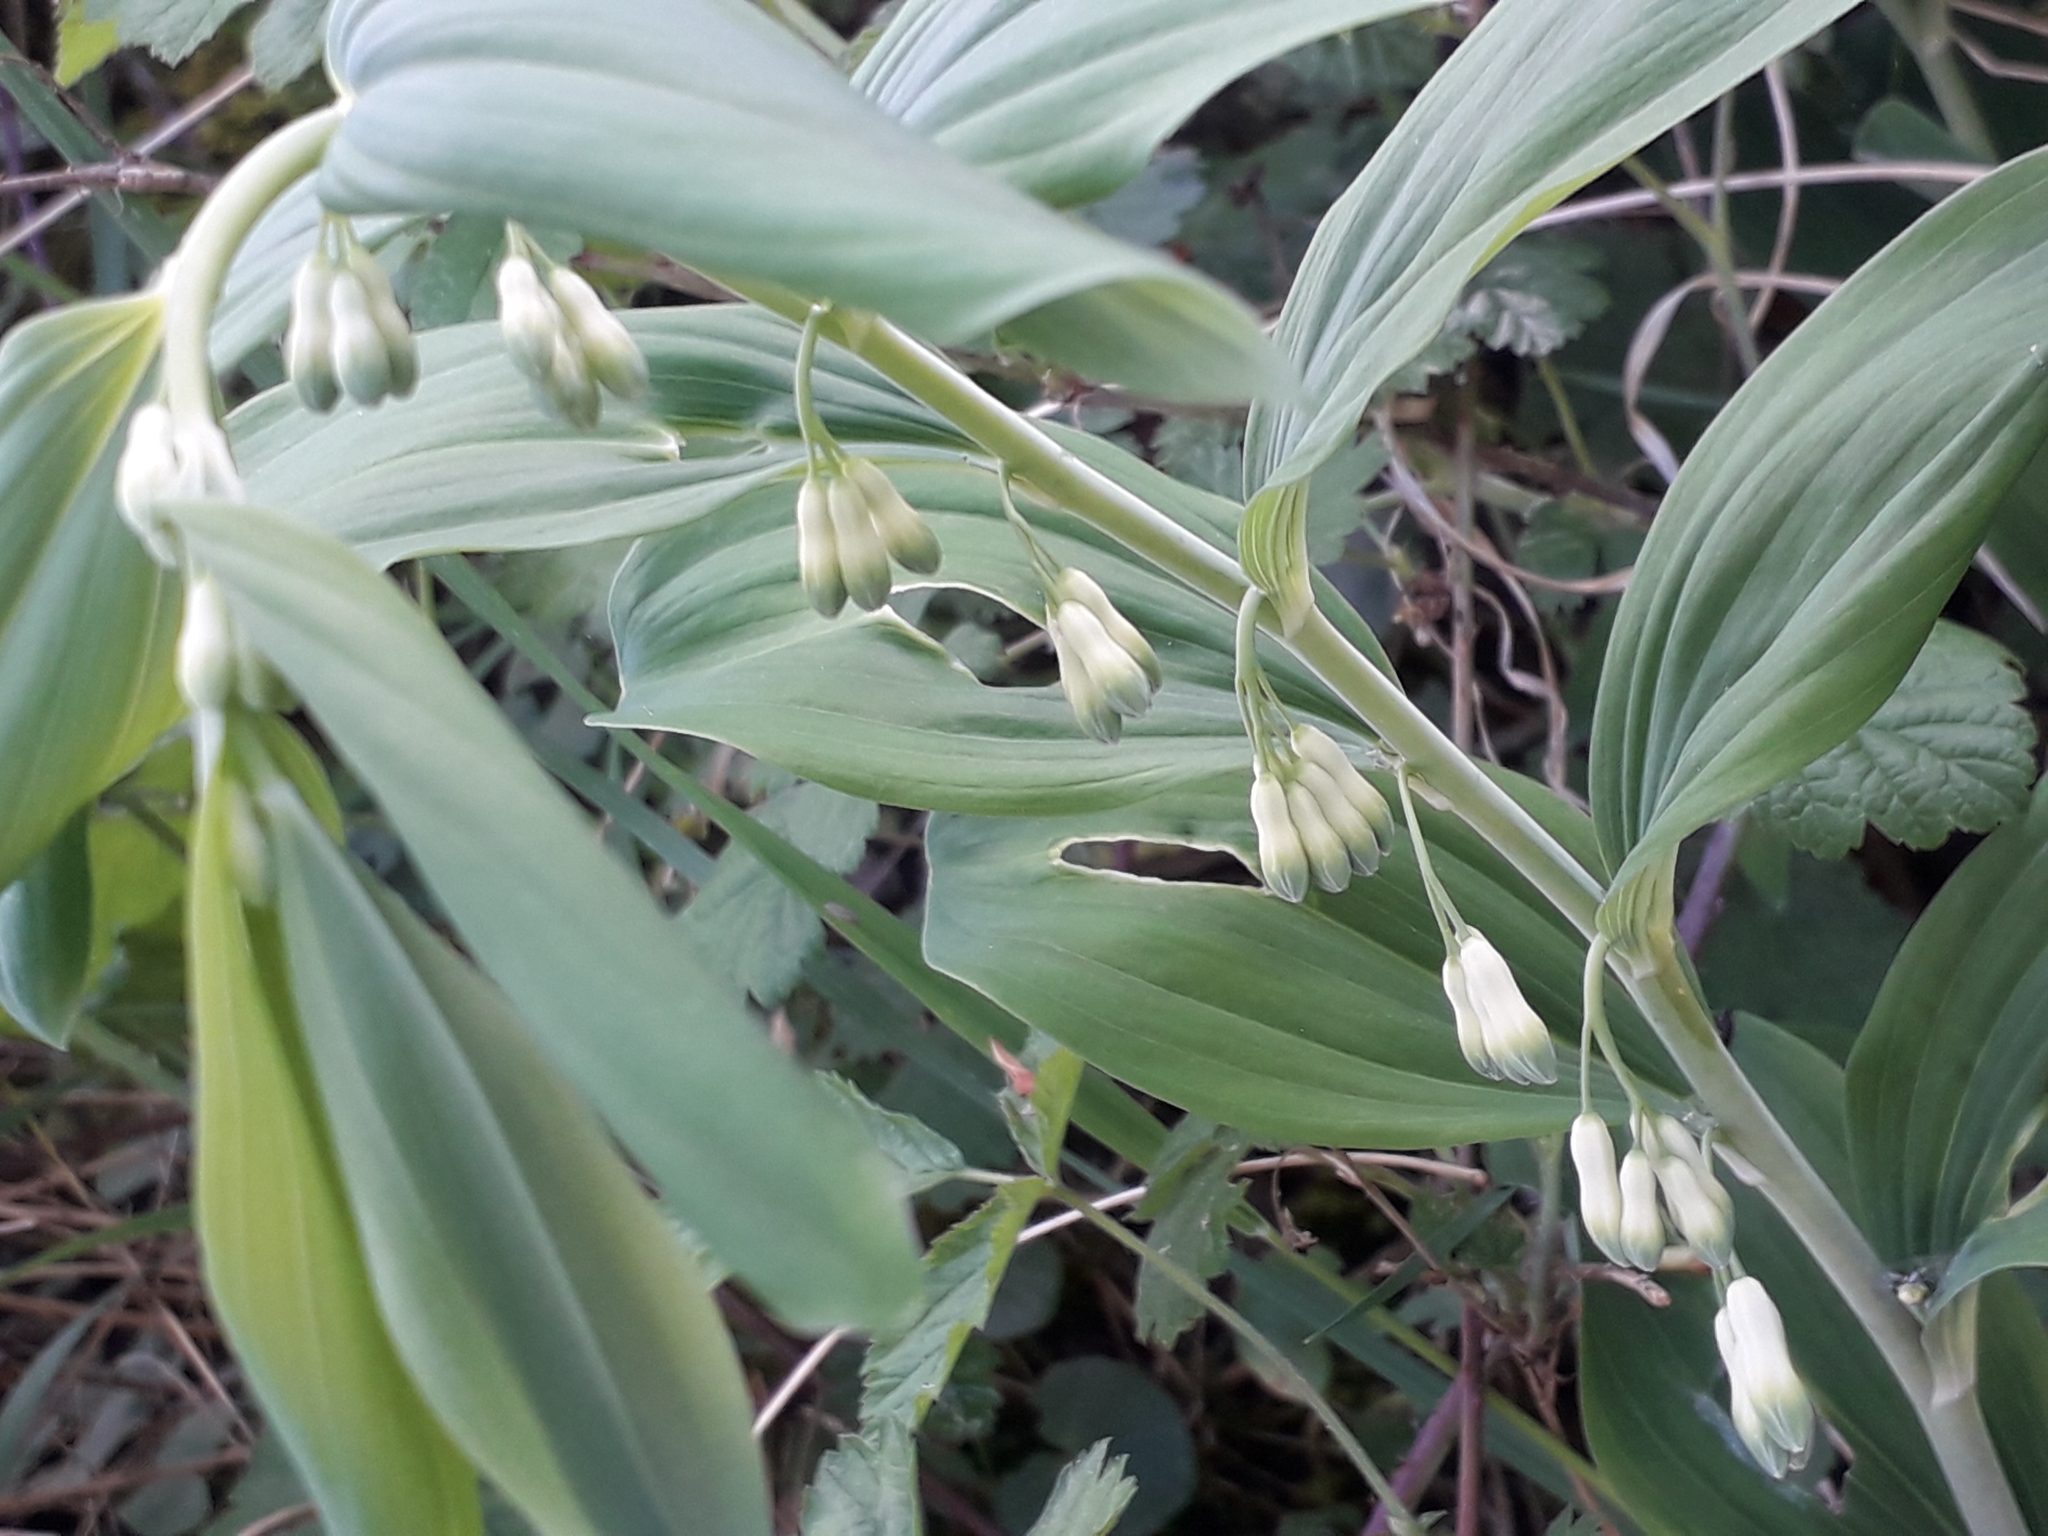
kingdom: Plantae
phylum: Tracheophyta
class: Liliopsida
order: Asparagales
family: Asparagaceae
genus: Polygonatum
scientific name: Polygonatum multiflorum
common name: Solomon's-seal
